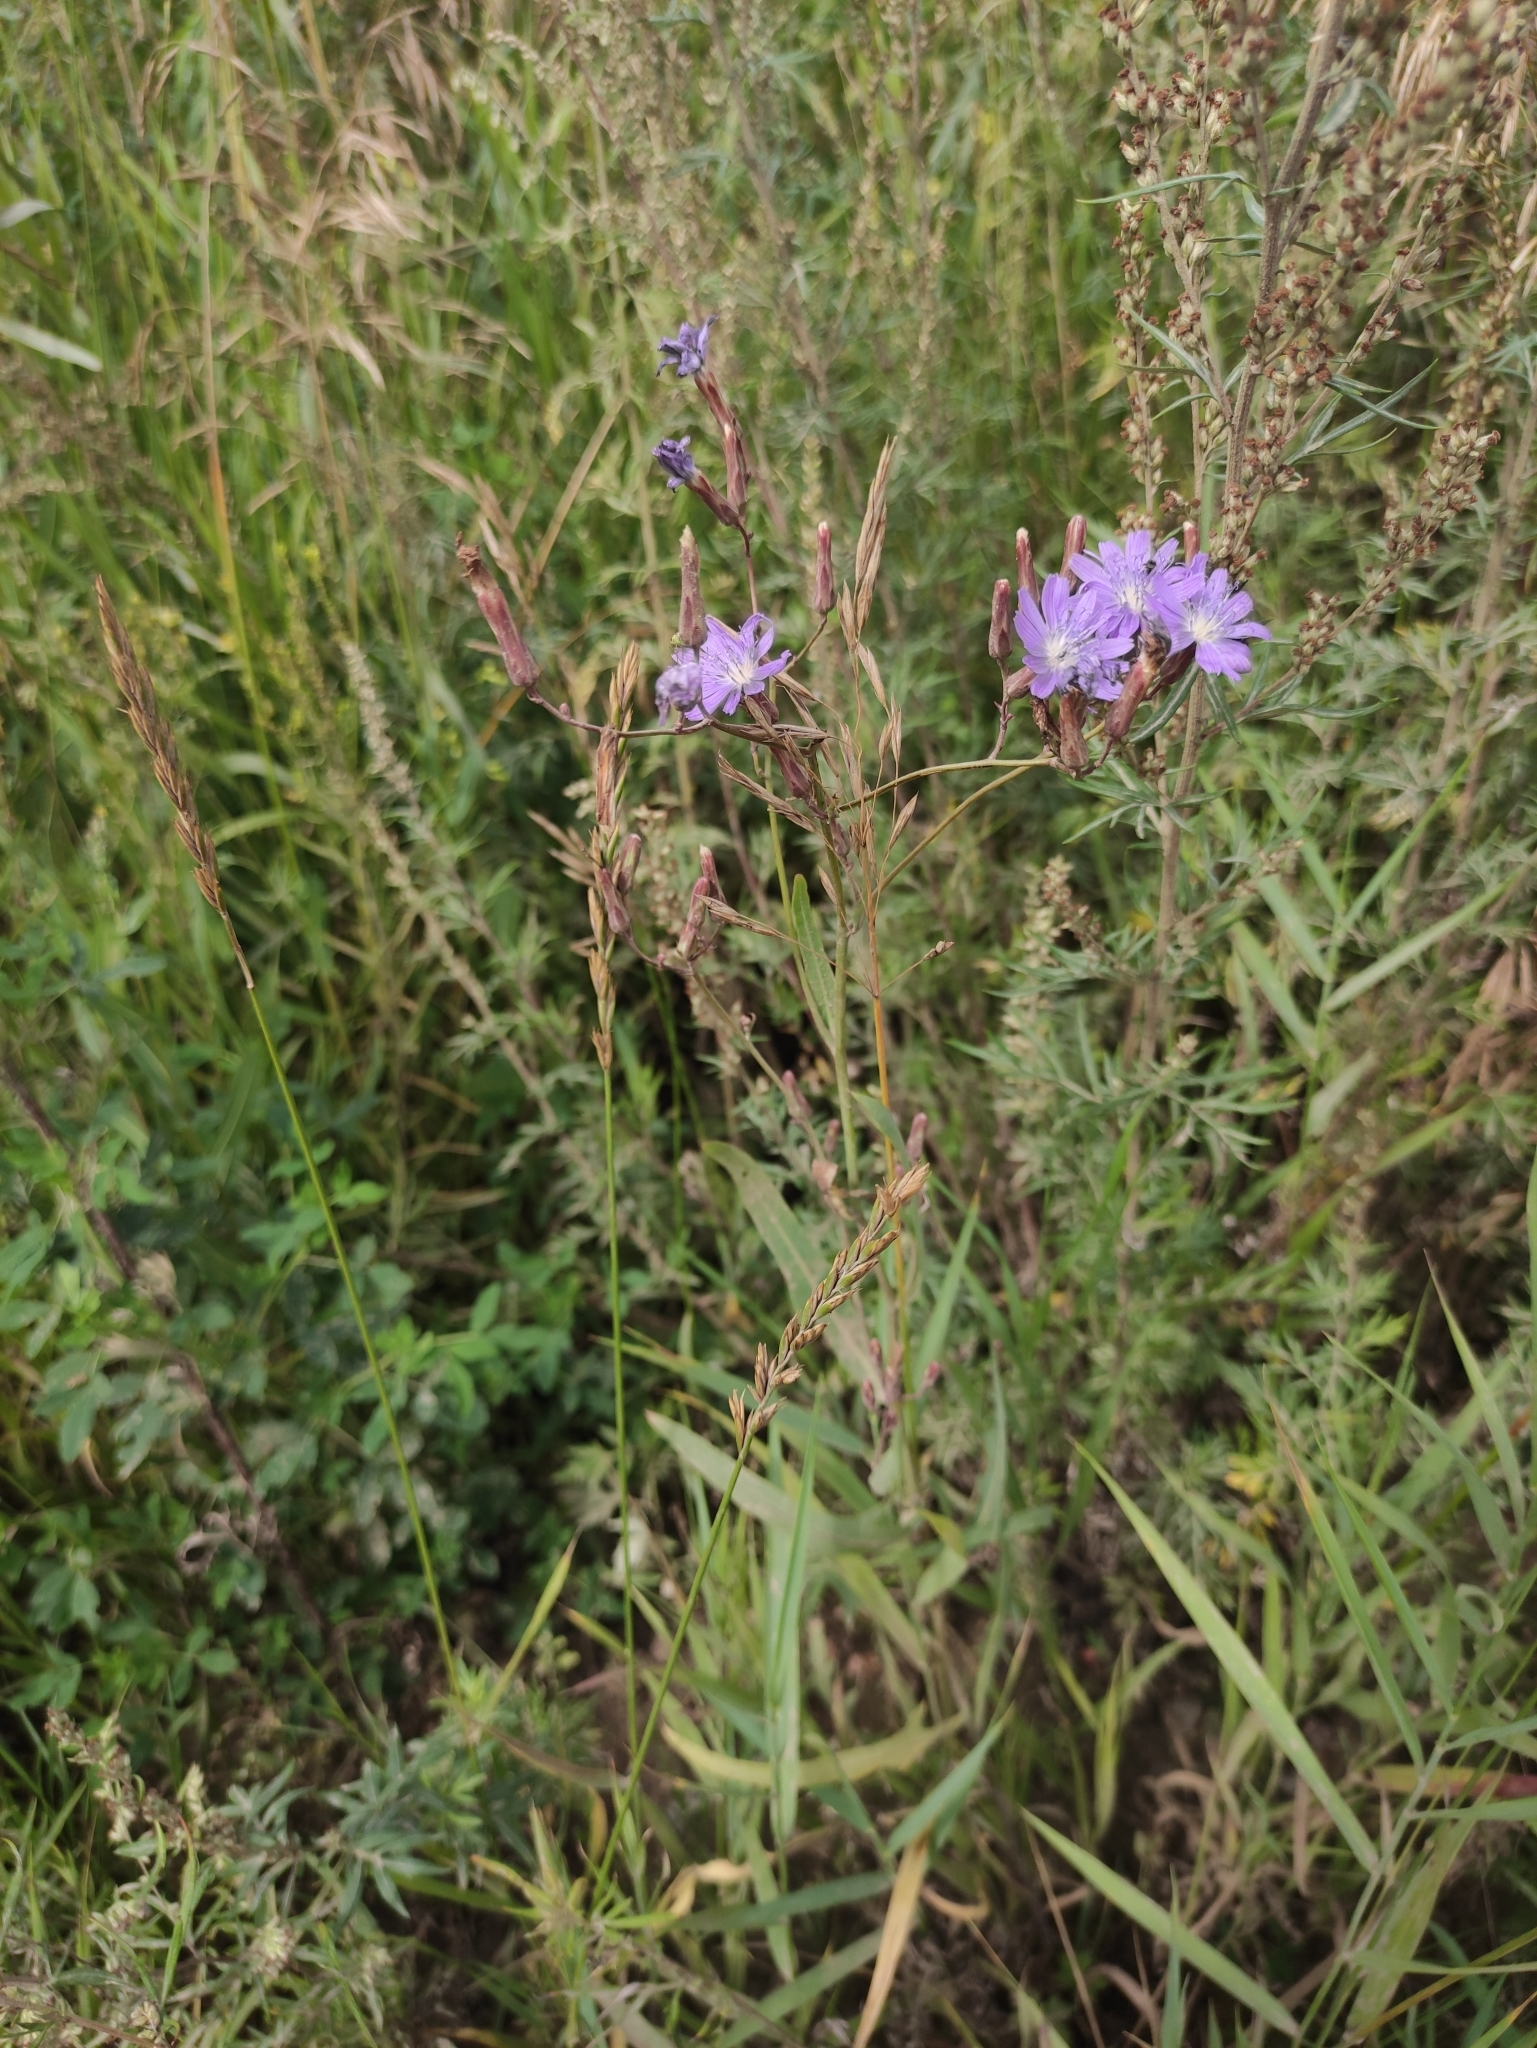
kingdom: Plantae
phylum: Tracheophyta
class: Magnoliopsida
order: Asterales
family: Asteraceae
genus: Lactuca
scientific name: Lactuca tatarica
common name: Blue lettuce
